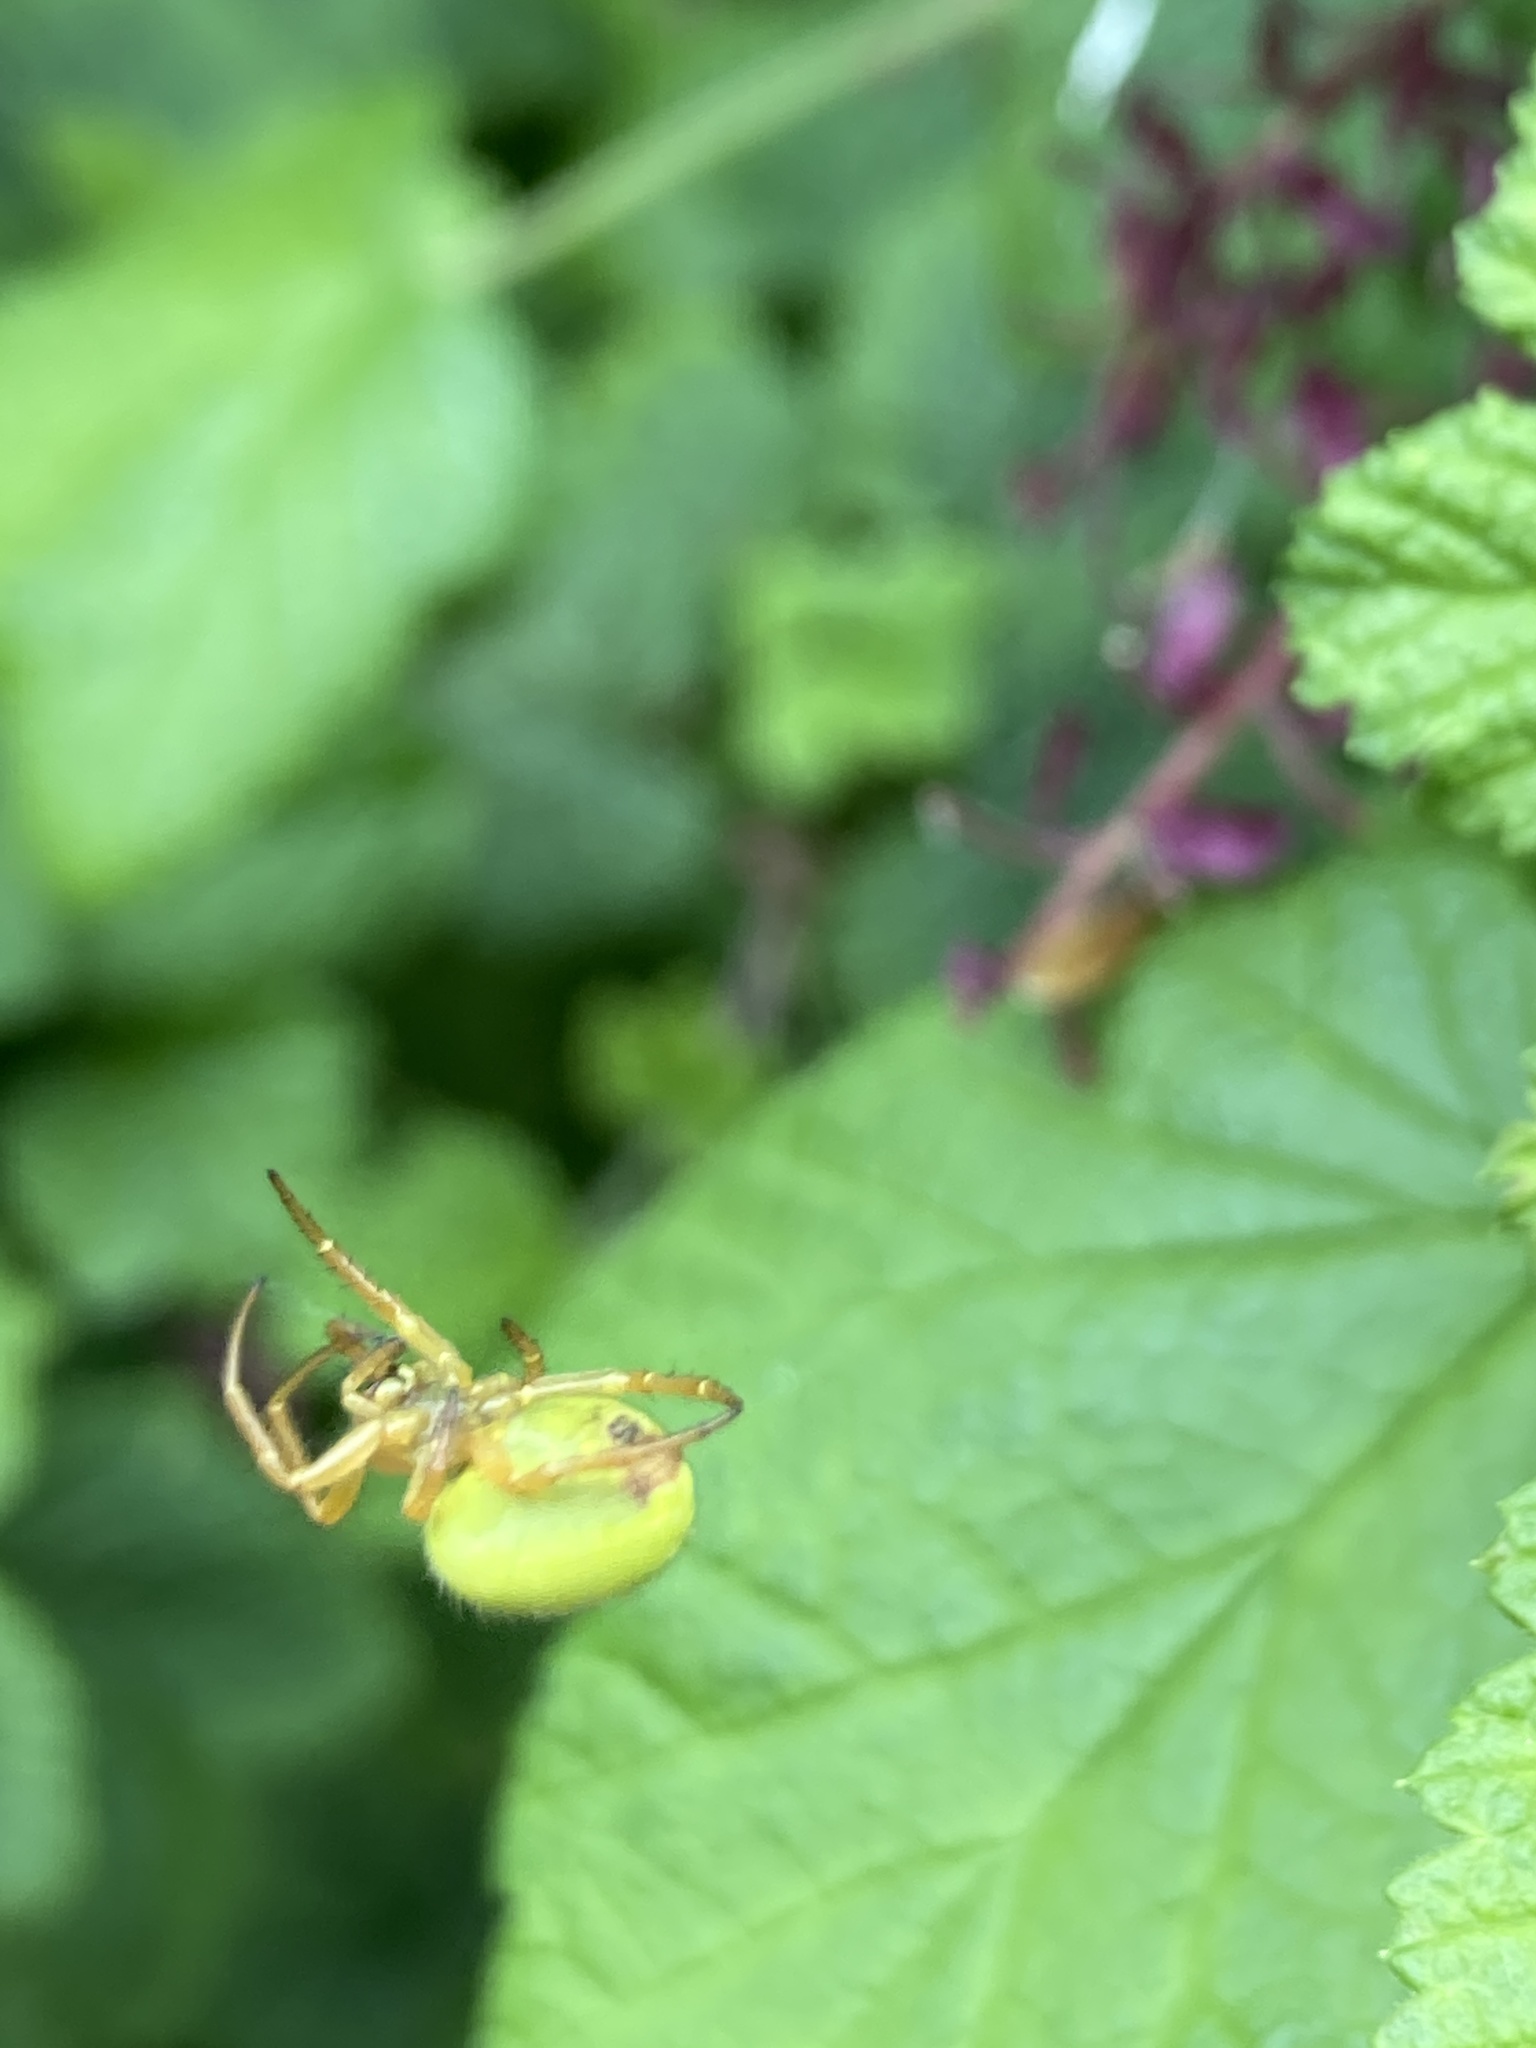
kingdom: Animalia
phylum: Arthropoda
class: Arachnida
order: Araneae
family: Araneidae
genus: Araniella
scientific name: Araniella
